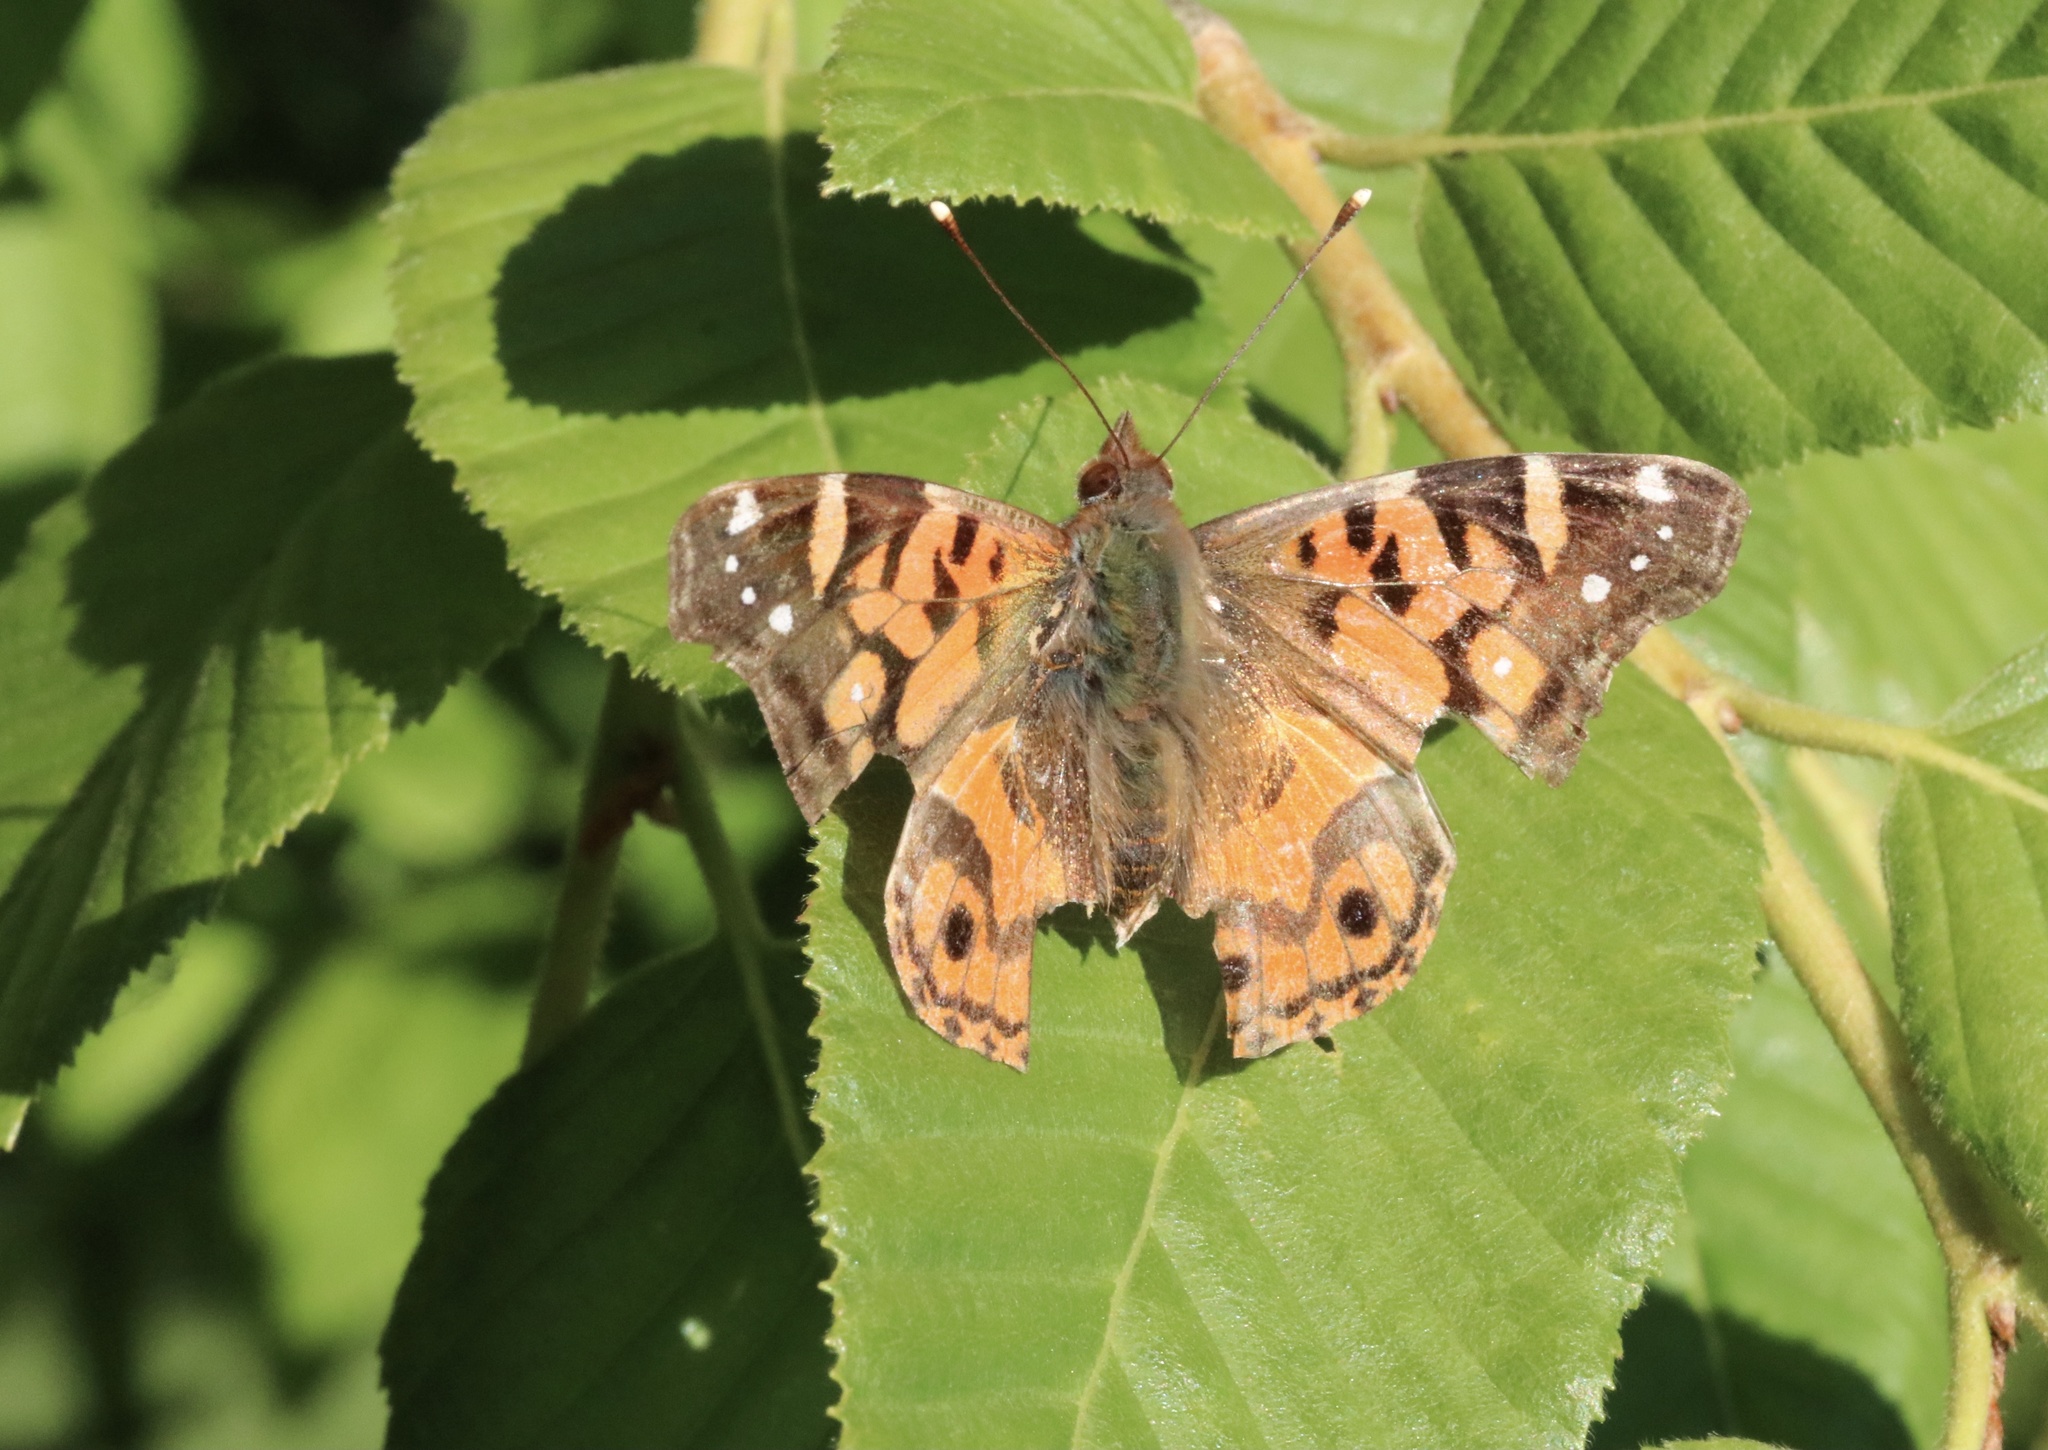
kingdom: Animalia
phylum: Arthropoda
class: Insecta
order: Lepidoptera
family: Nymphalidae
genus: Vanessa
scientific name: Vanessa terpsichore
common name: Chilean lady
